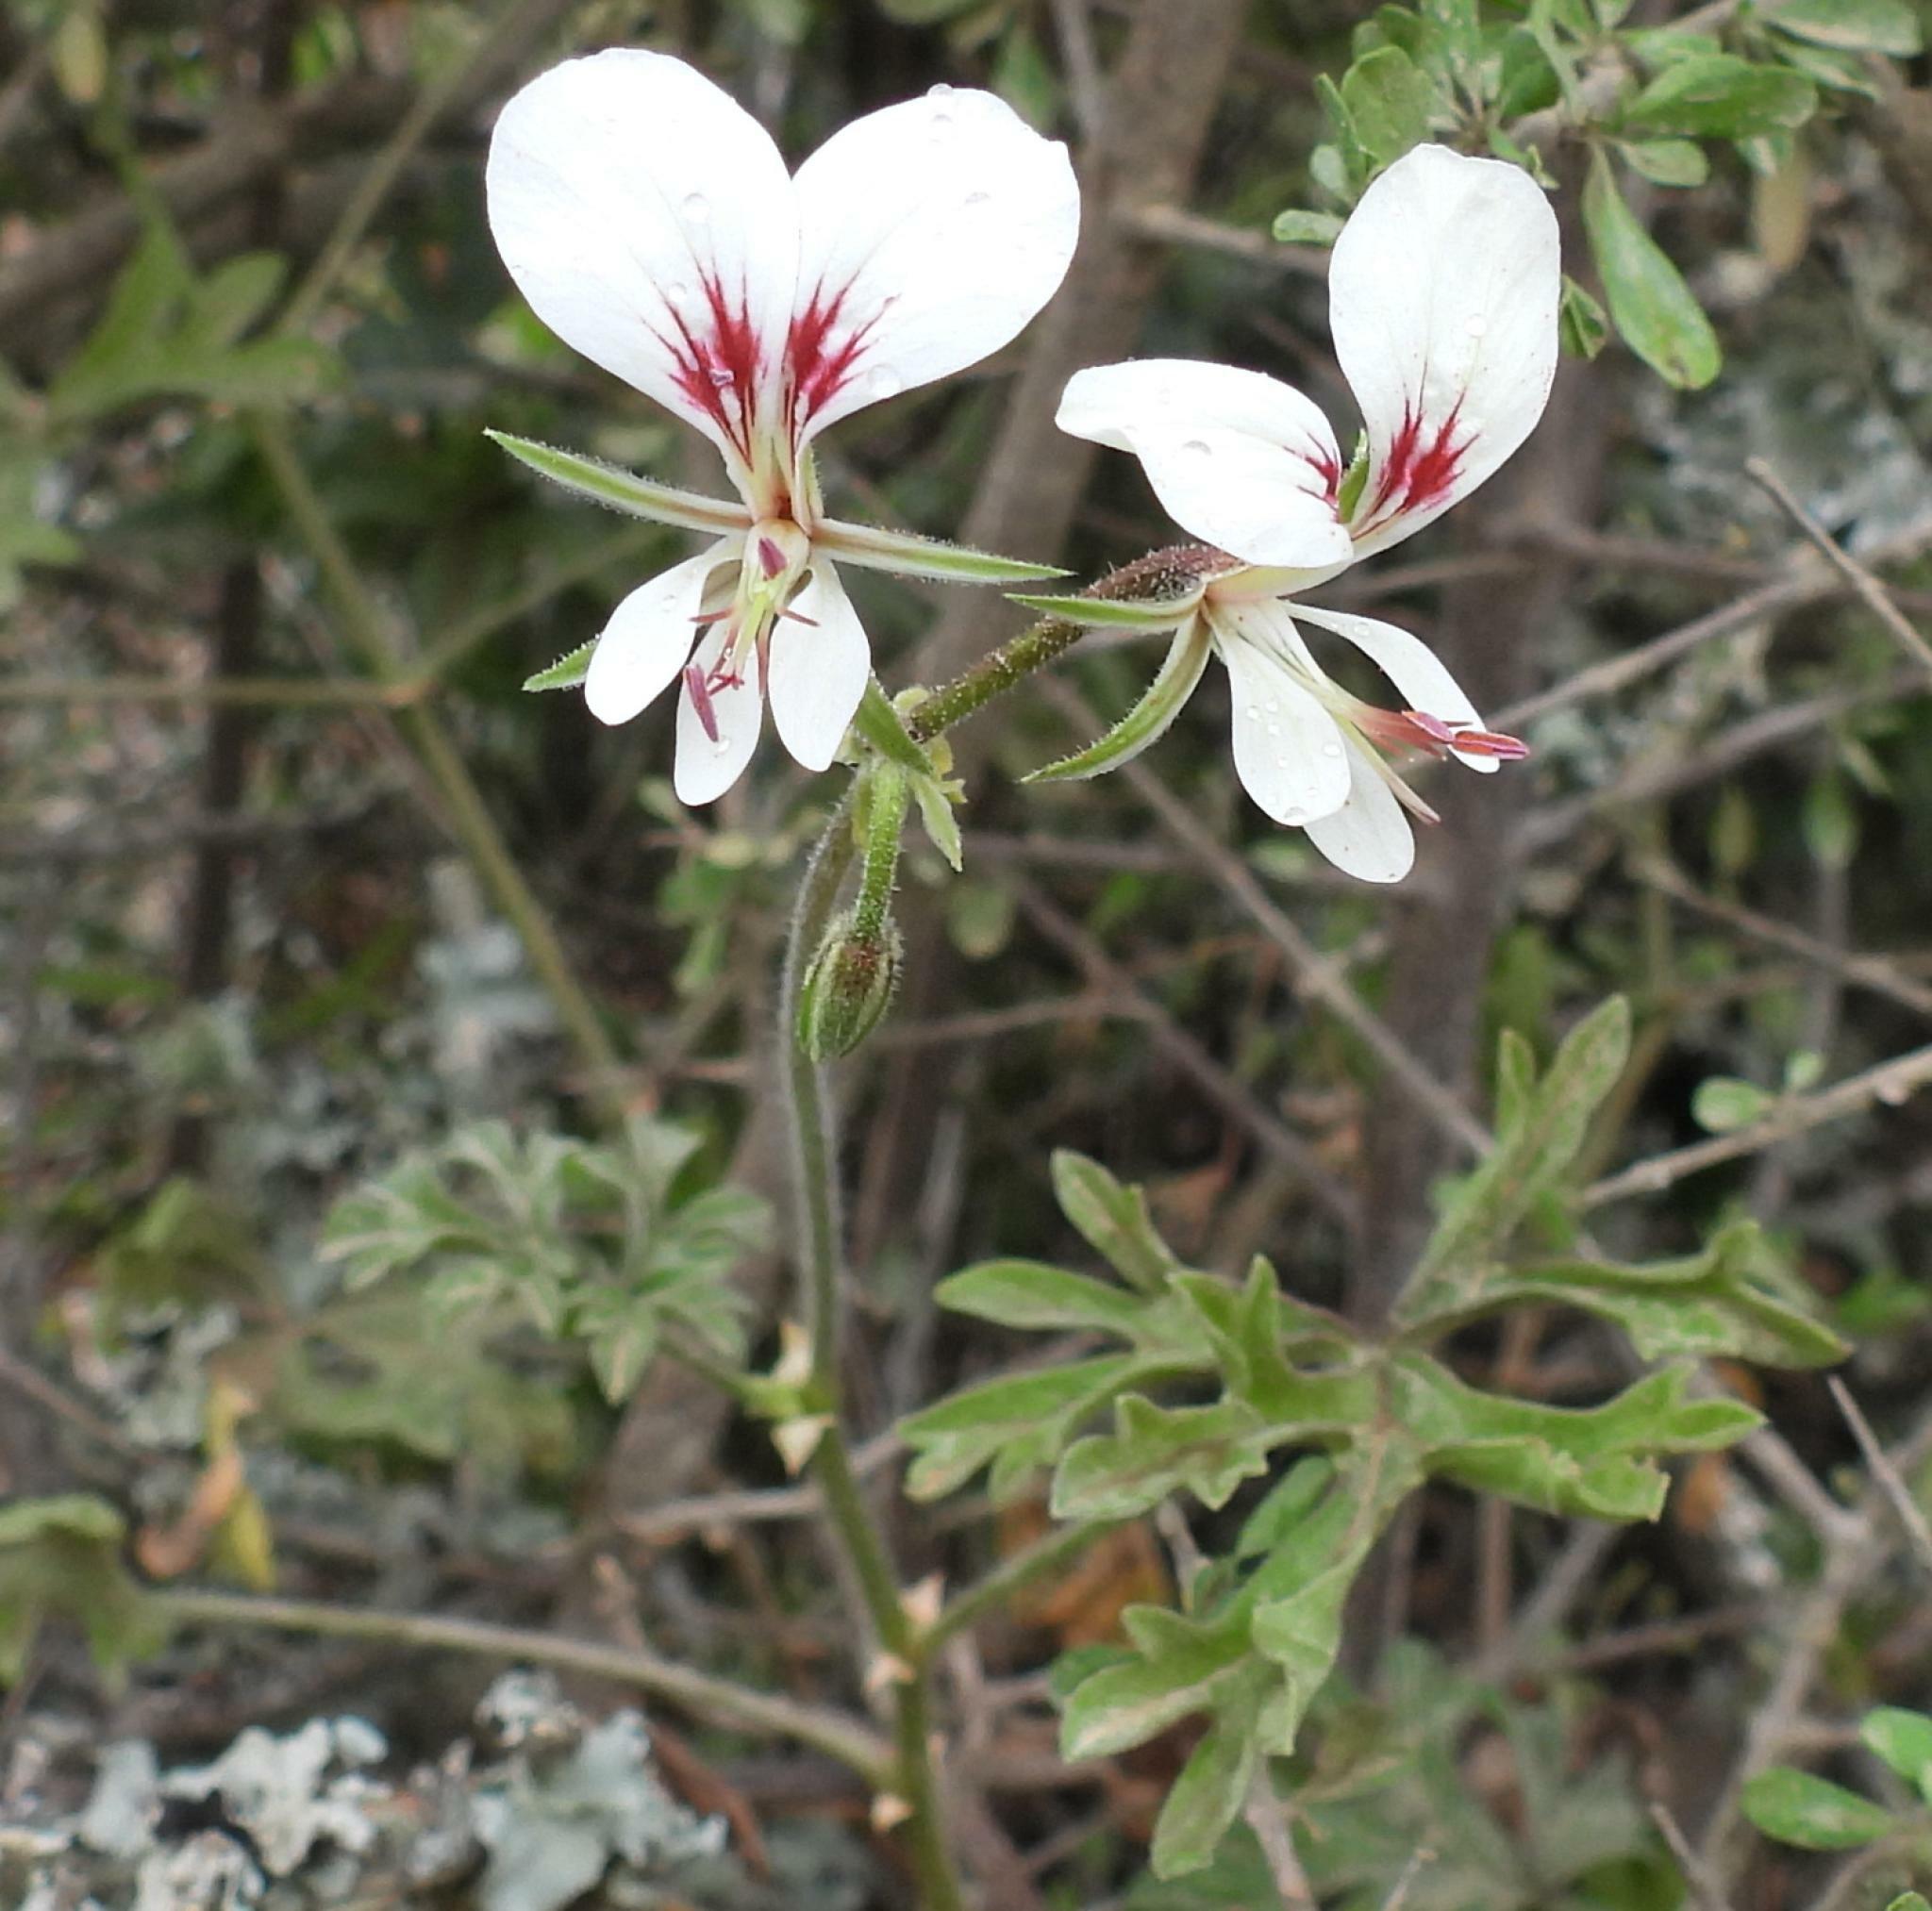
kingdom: Plantae
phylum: Tracheophyta
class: Magnoliopsida
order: Geraniales
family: Geraniaceae
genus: Pelargonium
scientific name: Pelargonium exhibens
